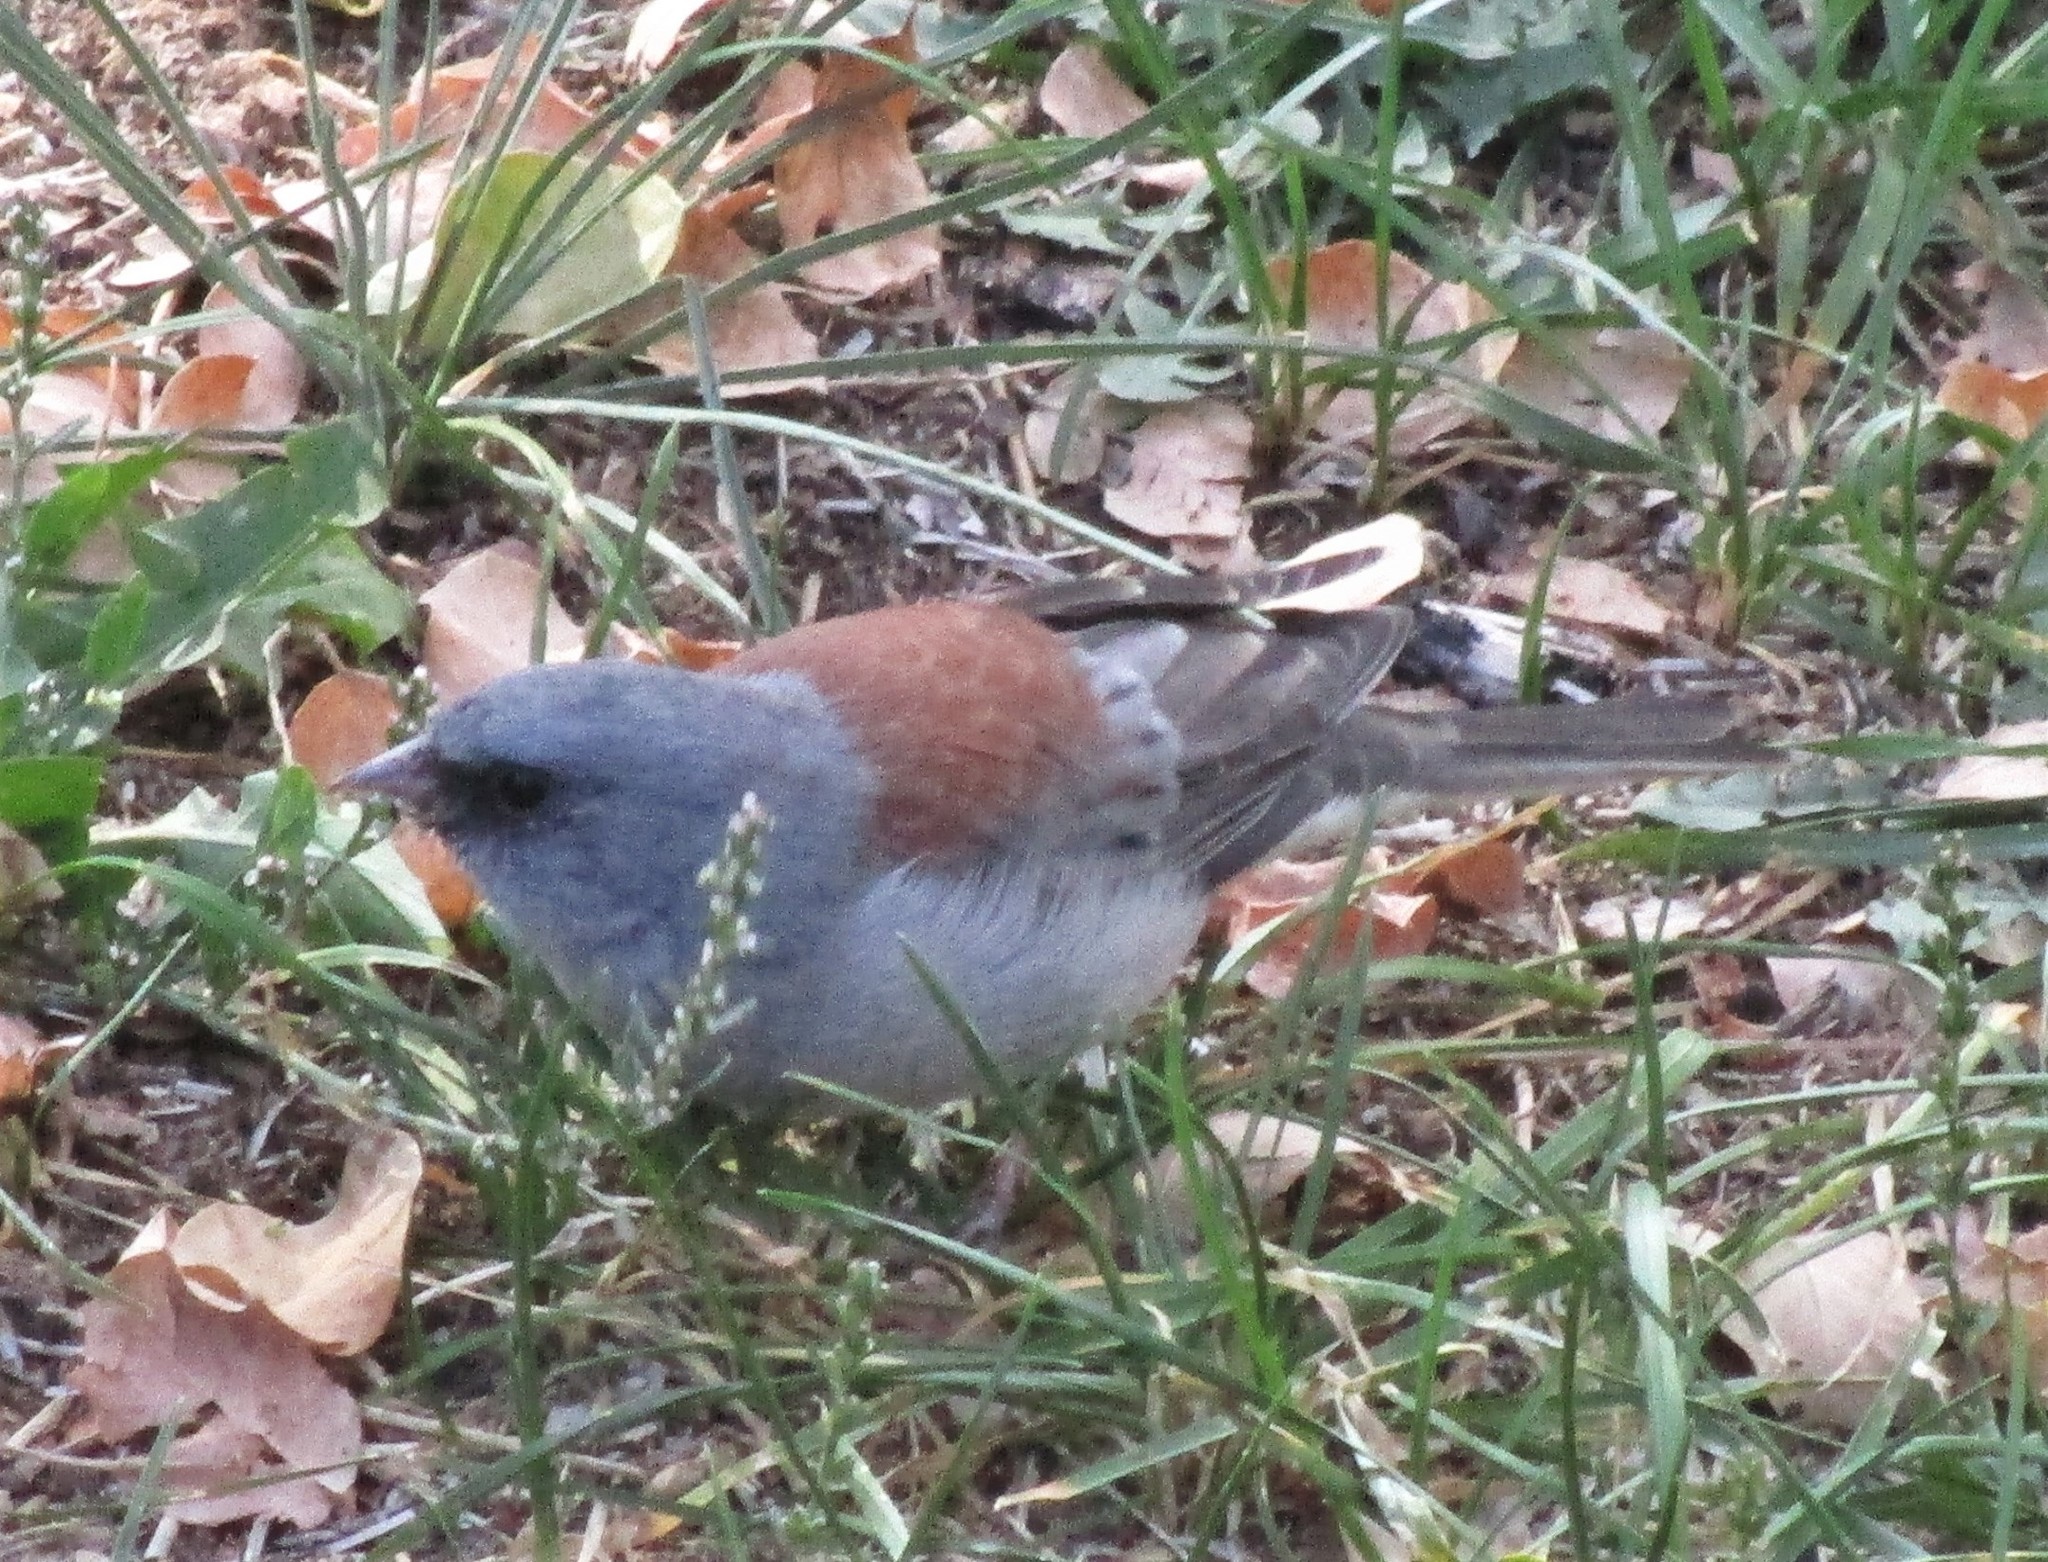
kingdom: Animalia
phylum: Chordata
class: Aves
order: Passeriformes
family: Passerellidae
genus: Junco
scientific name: Junco hyemalis
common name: Dark-eyed junco
